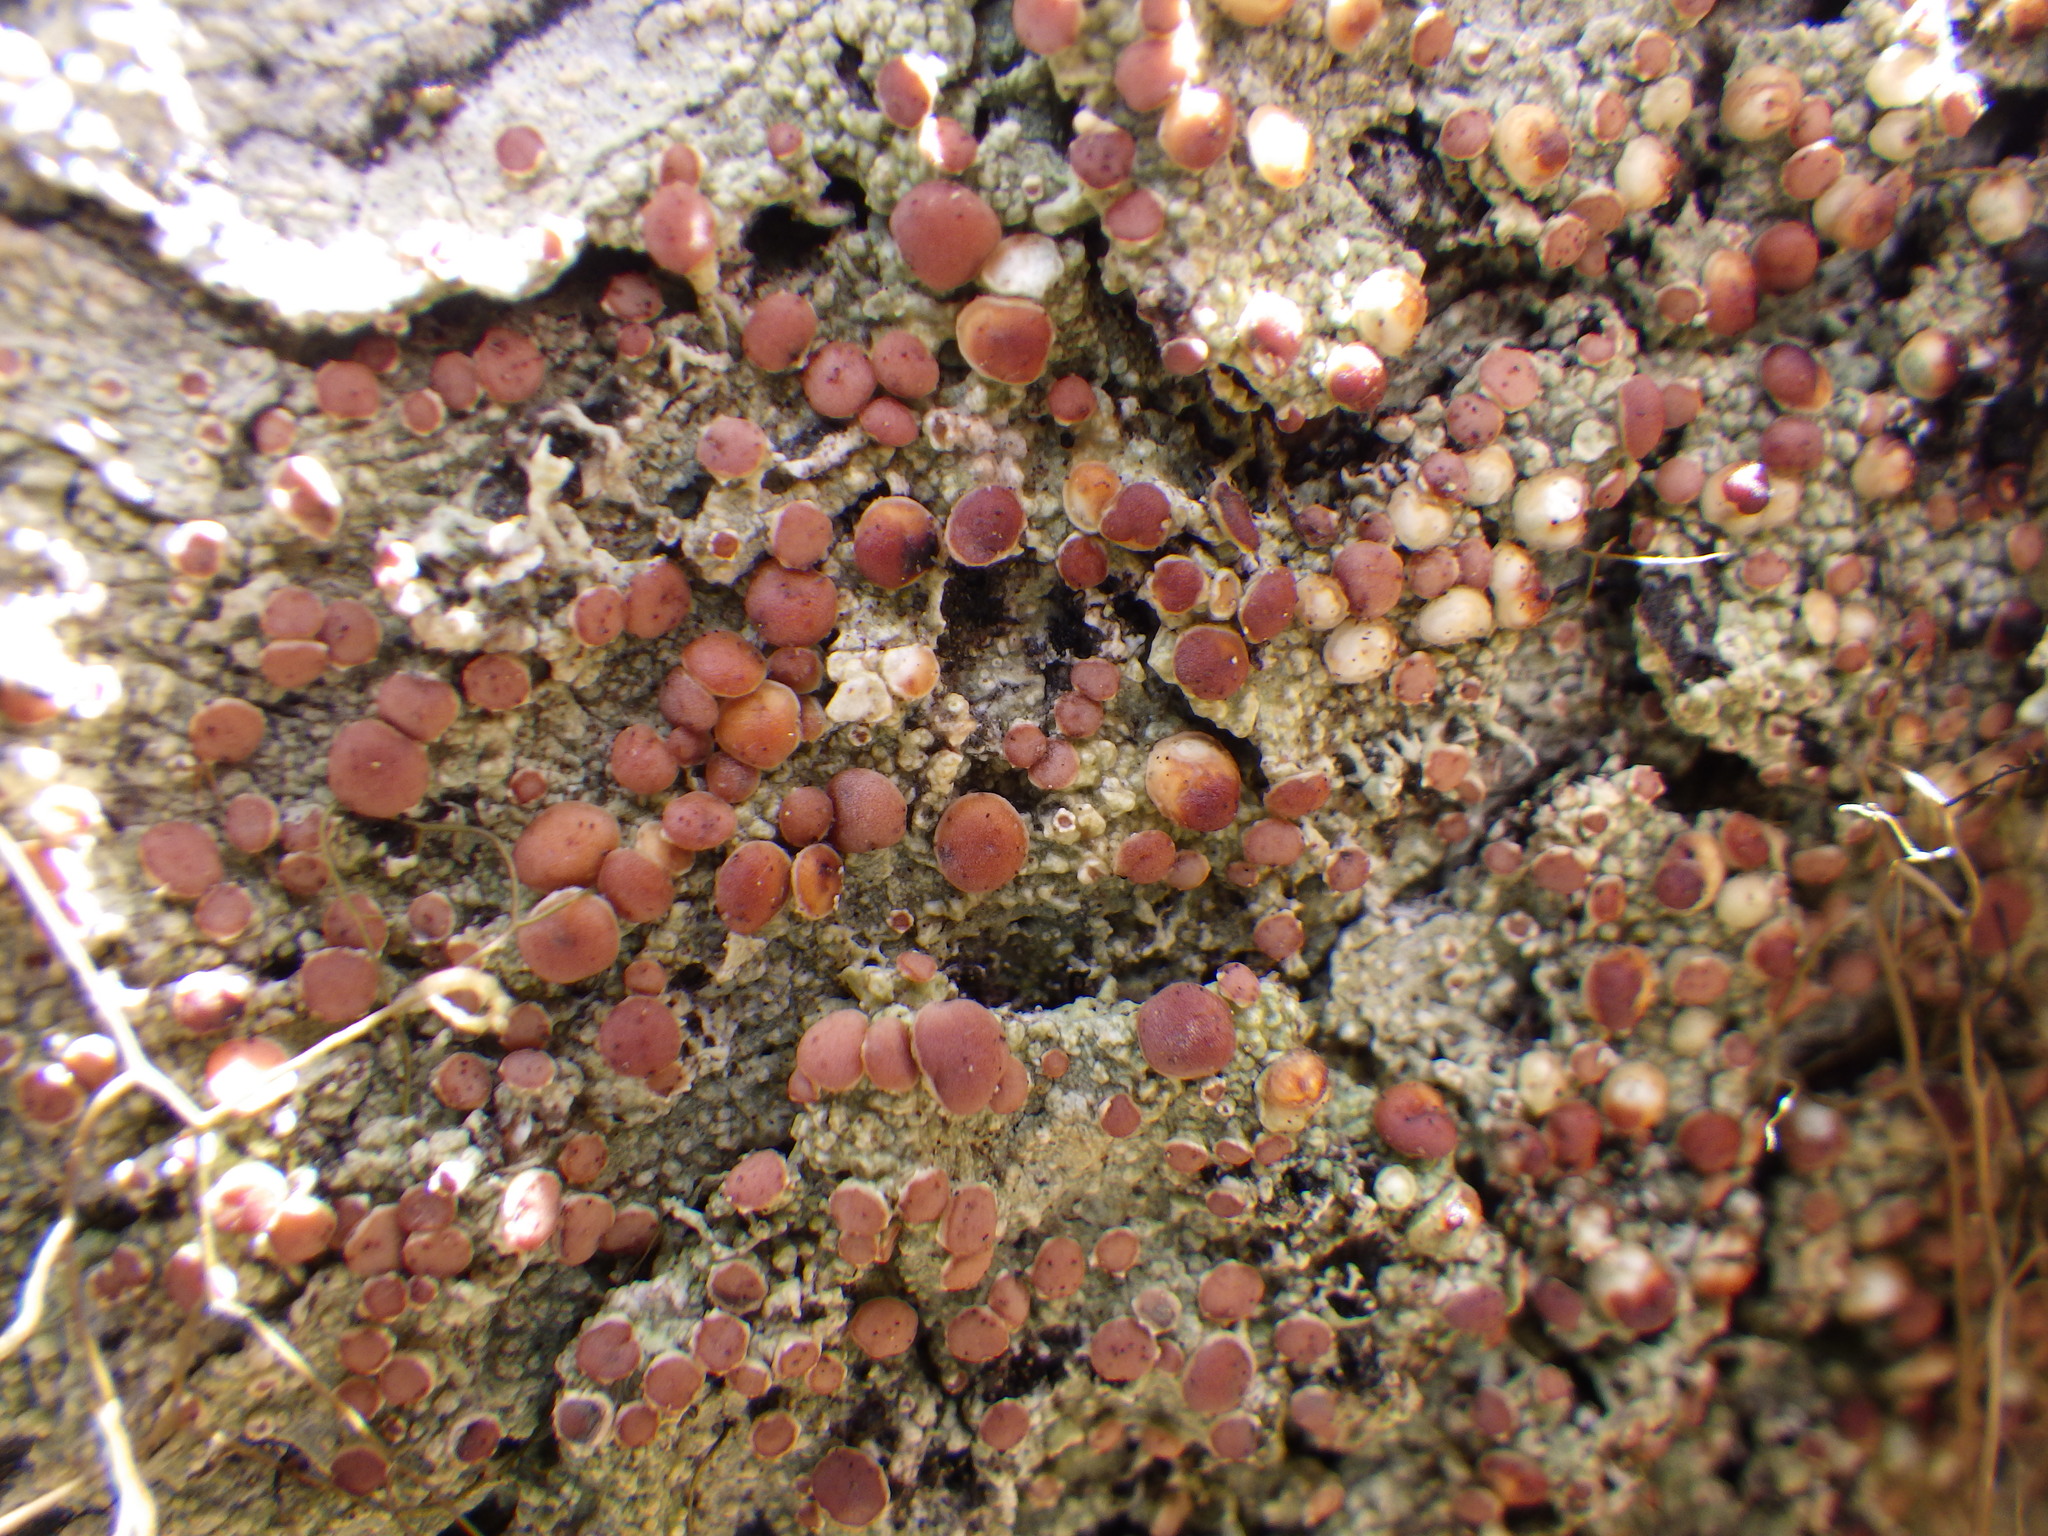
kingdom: Fungi
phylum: Ascomycota
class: Lecanoromycetes
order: Lecanorales
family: Sarrameanaceae
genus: Loxospora
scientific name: Loxospora ochrophaea
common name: Eastern ragged-rim lichen
